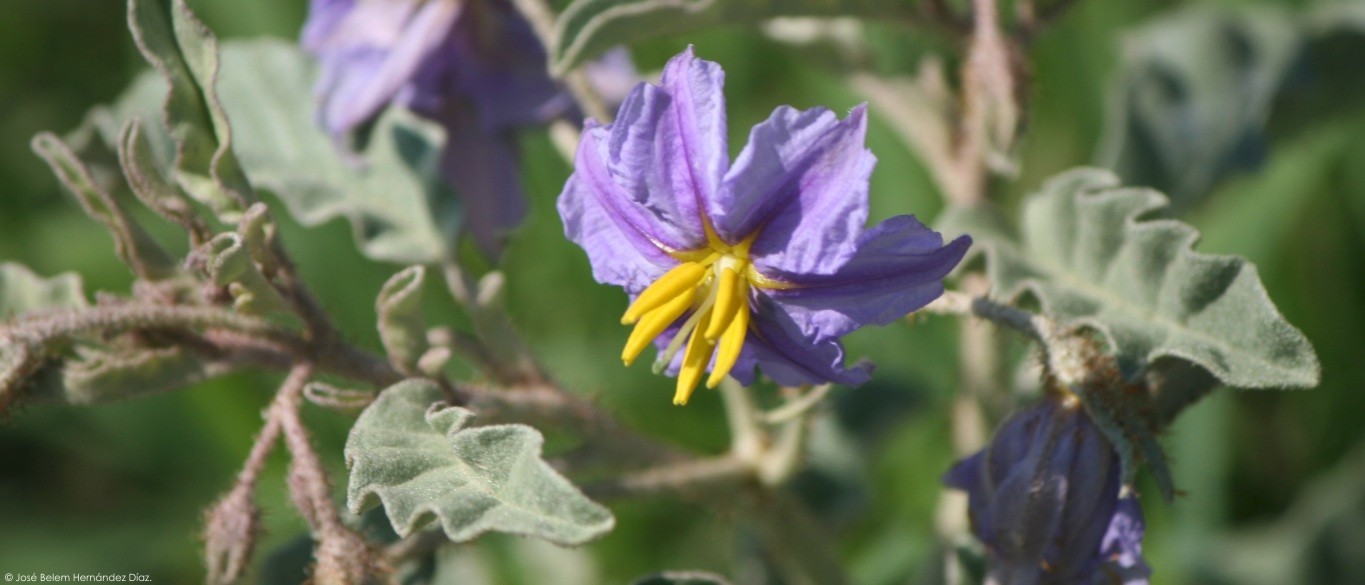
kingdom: Plantae
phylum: Tracheophyta
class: Magnoliopsida
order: Solanales
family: Solanaceae
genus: Solanum
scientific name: Solanum elaeagnifolium
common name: Silverleaf nightshade
